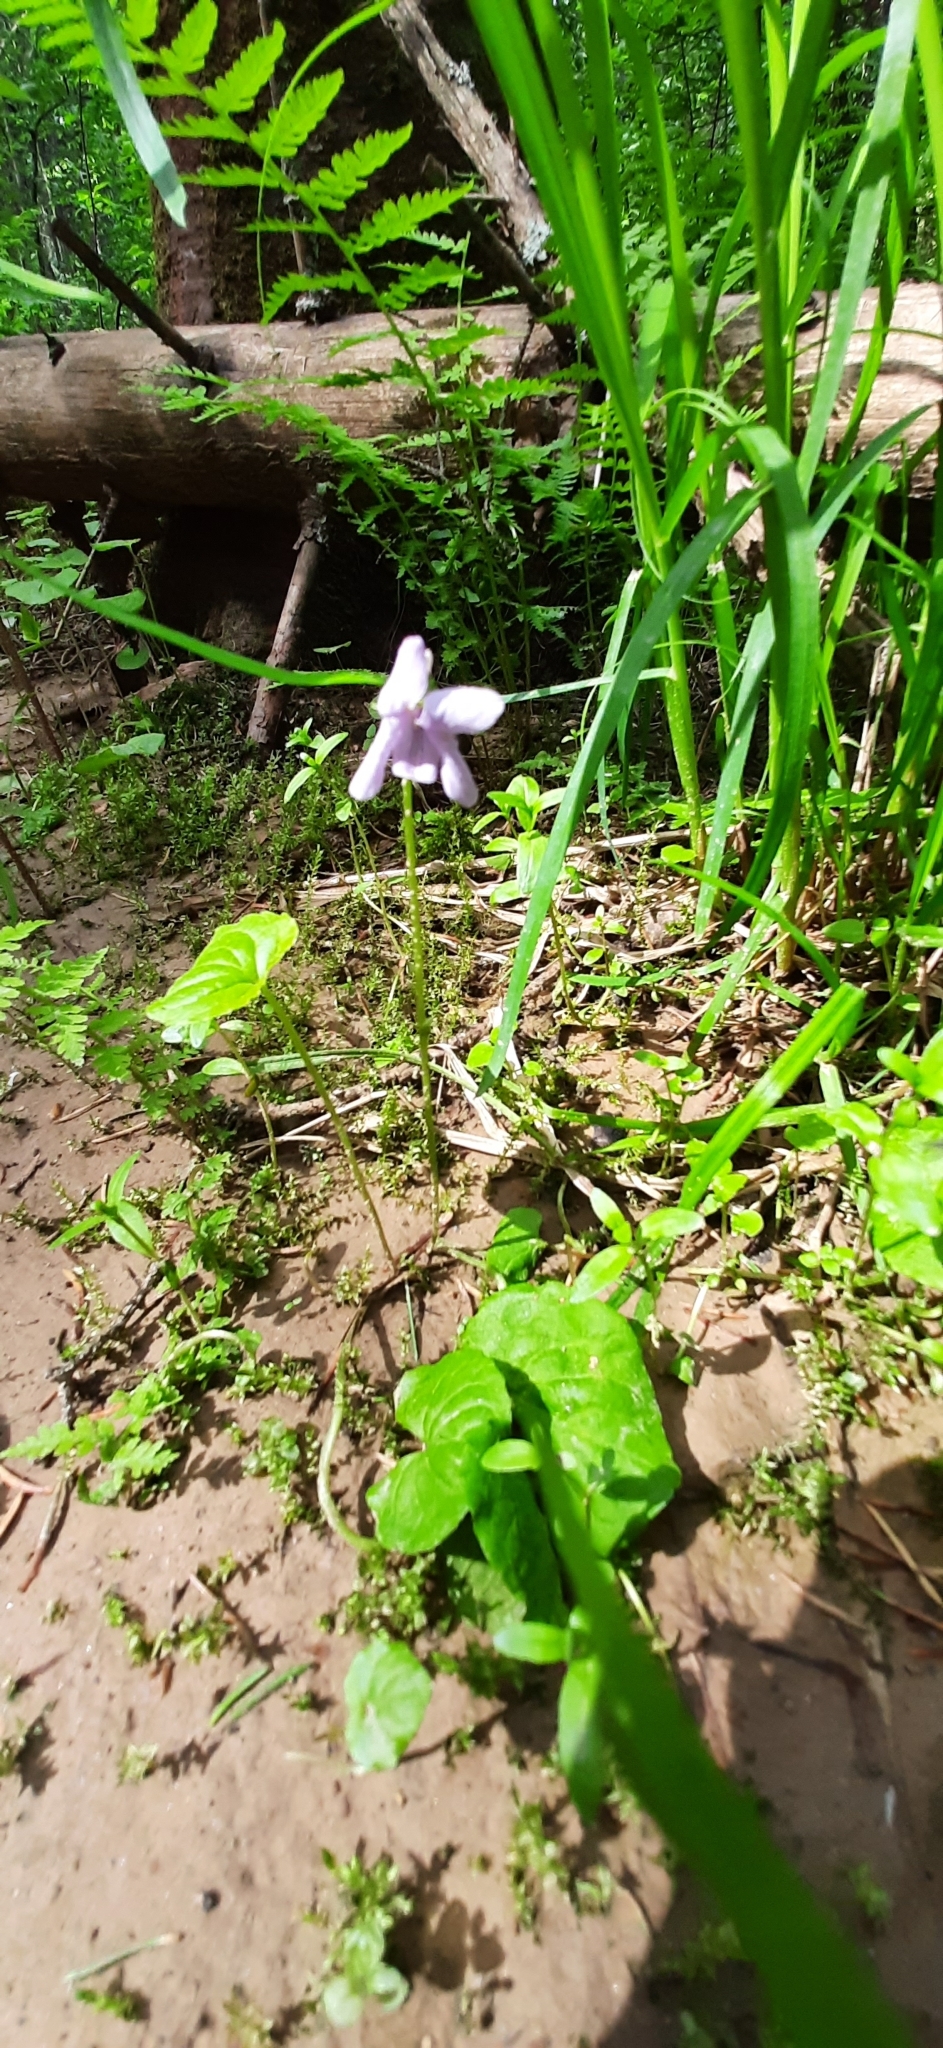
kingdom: Plantae
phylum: Tracheophyta
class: Magnoliopsida
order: Malpighiales
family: Violaceae
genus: Viola
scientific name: Viola selkirkii
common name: Selkirk's violet
